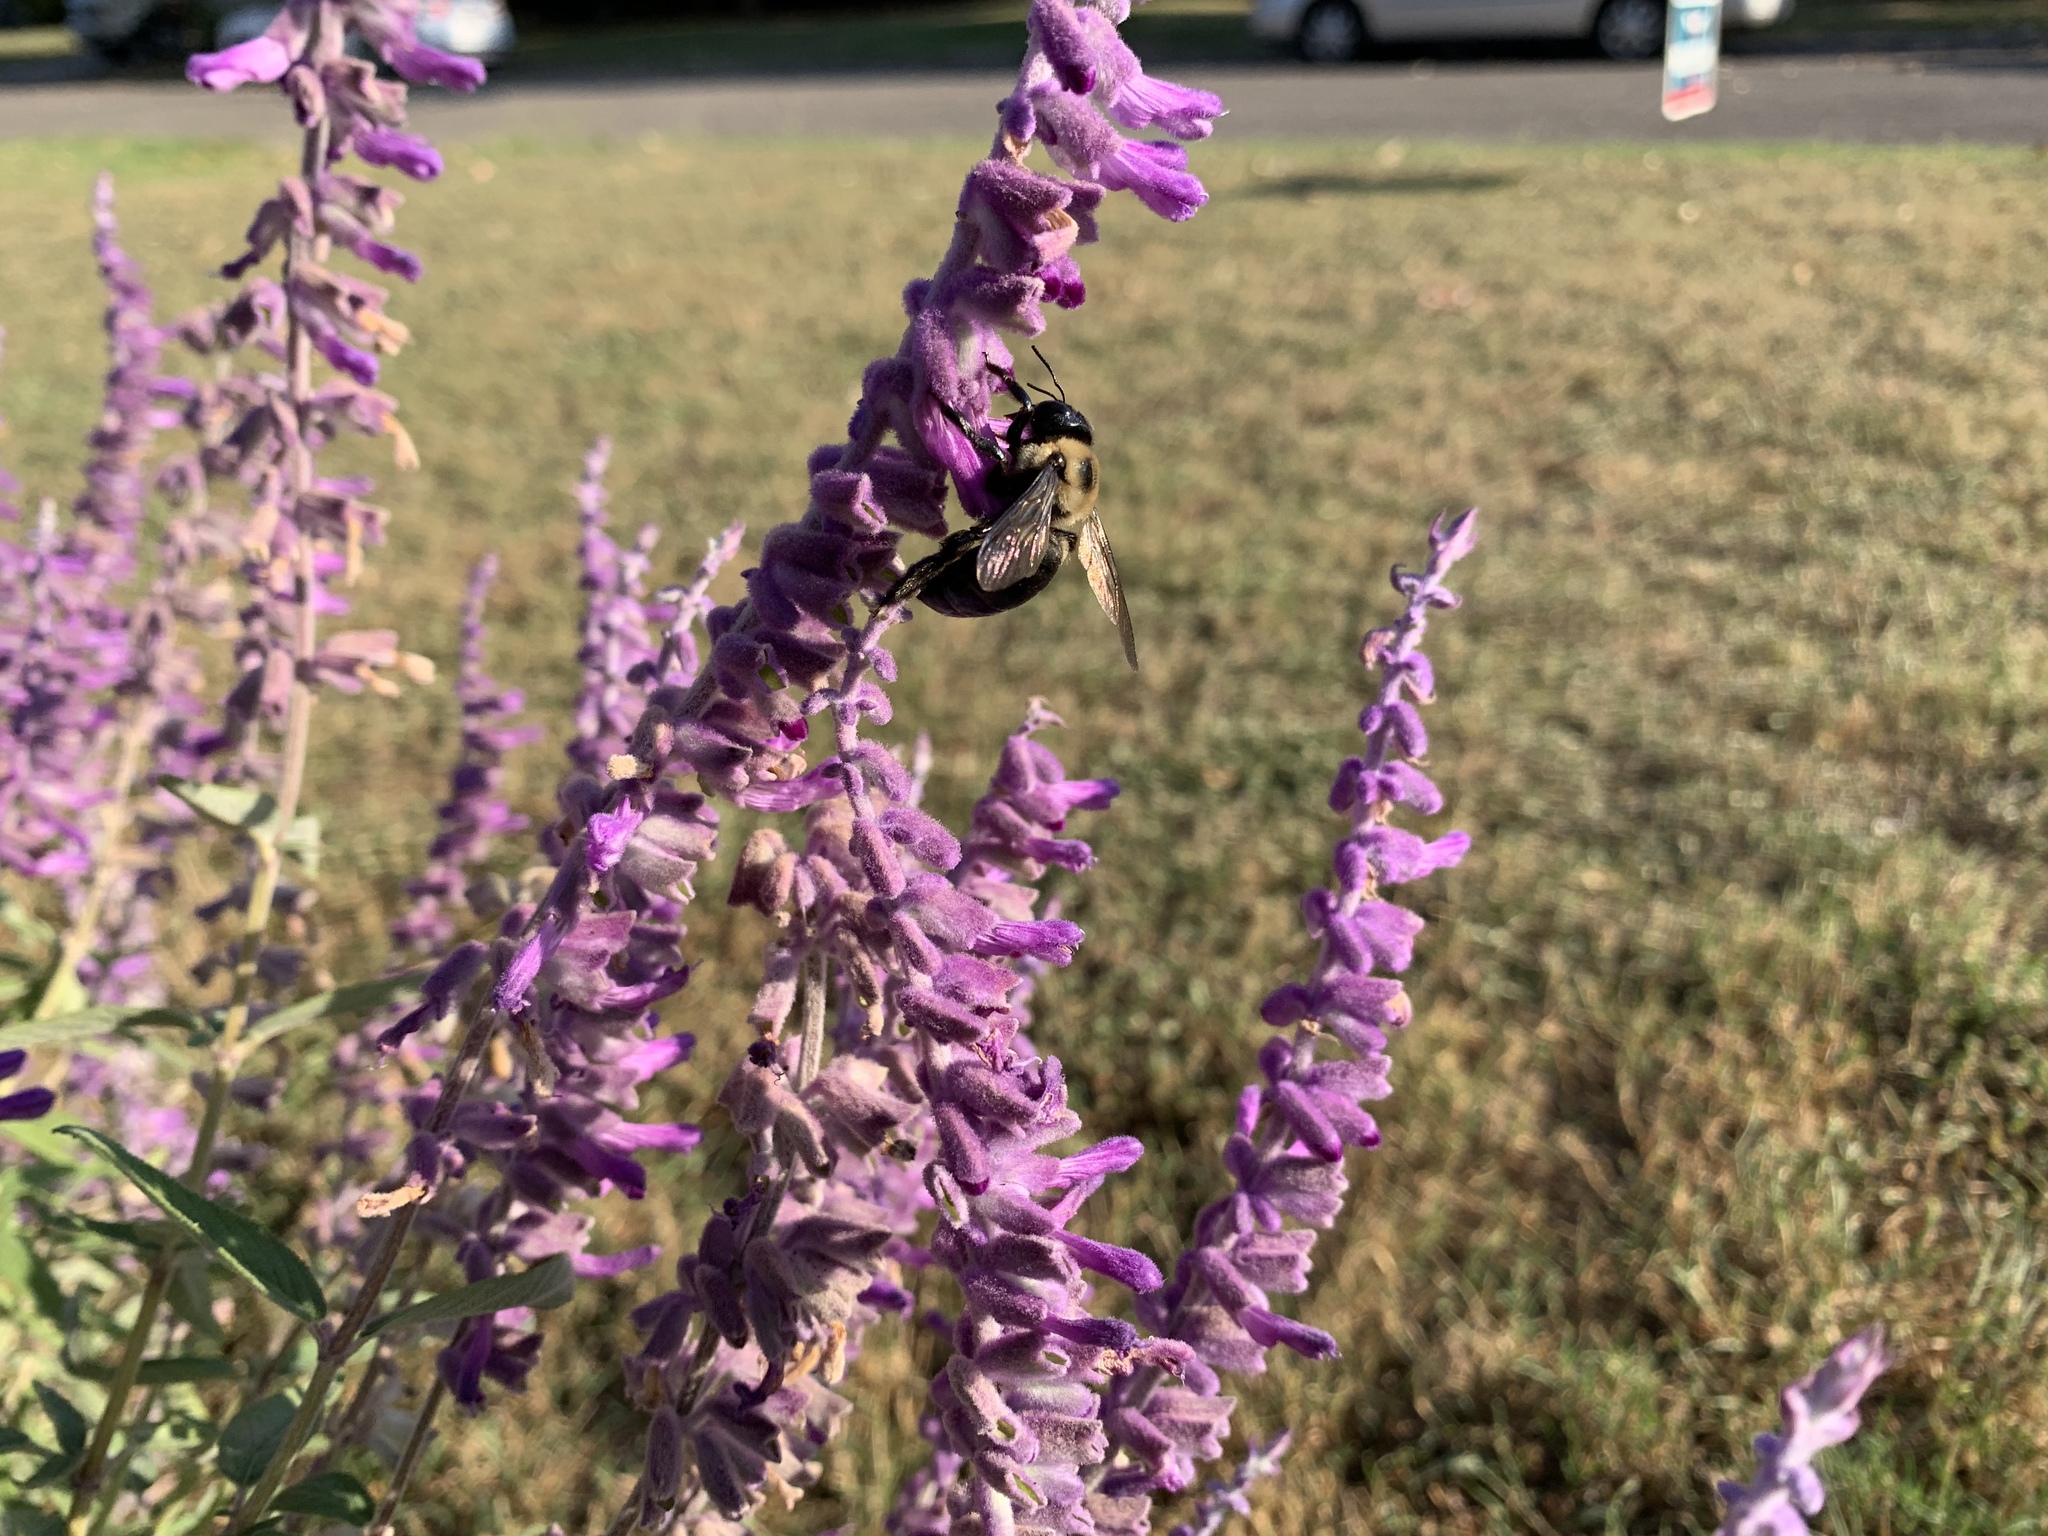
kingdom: Animalia
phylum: Arthropoda
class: Insecta
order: Hymenoptera
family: Apidae
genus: Xylocopa
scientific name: Xylocopa virginica
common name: Carpenter bee
